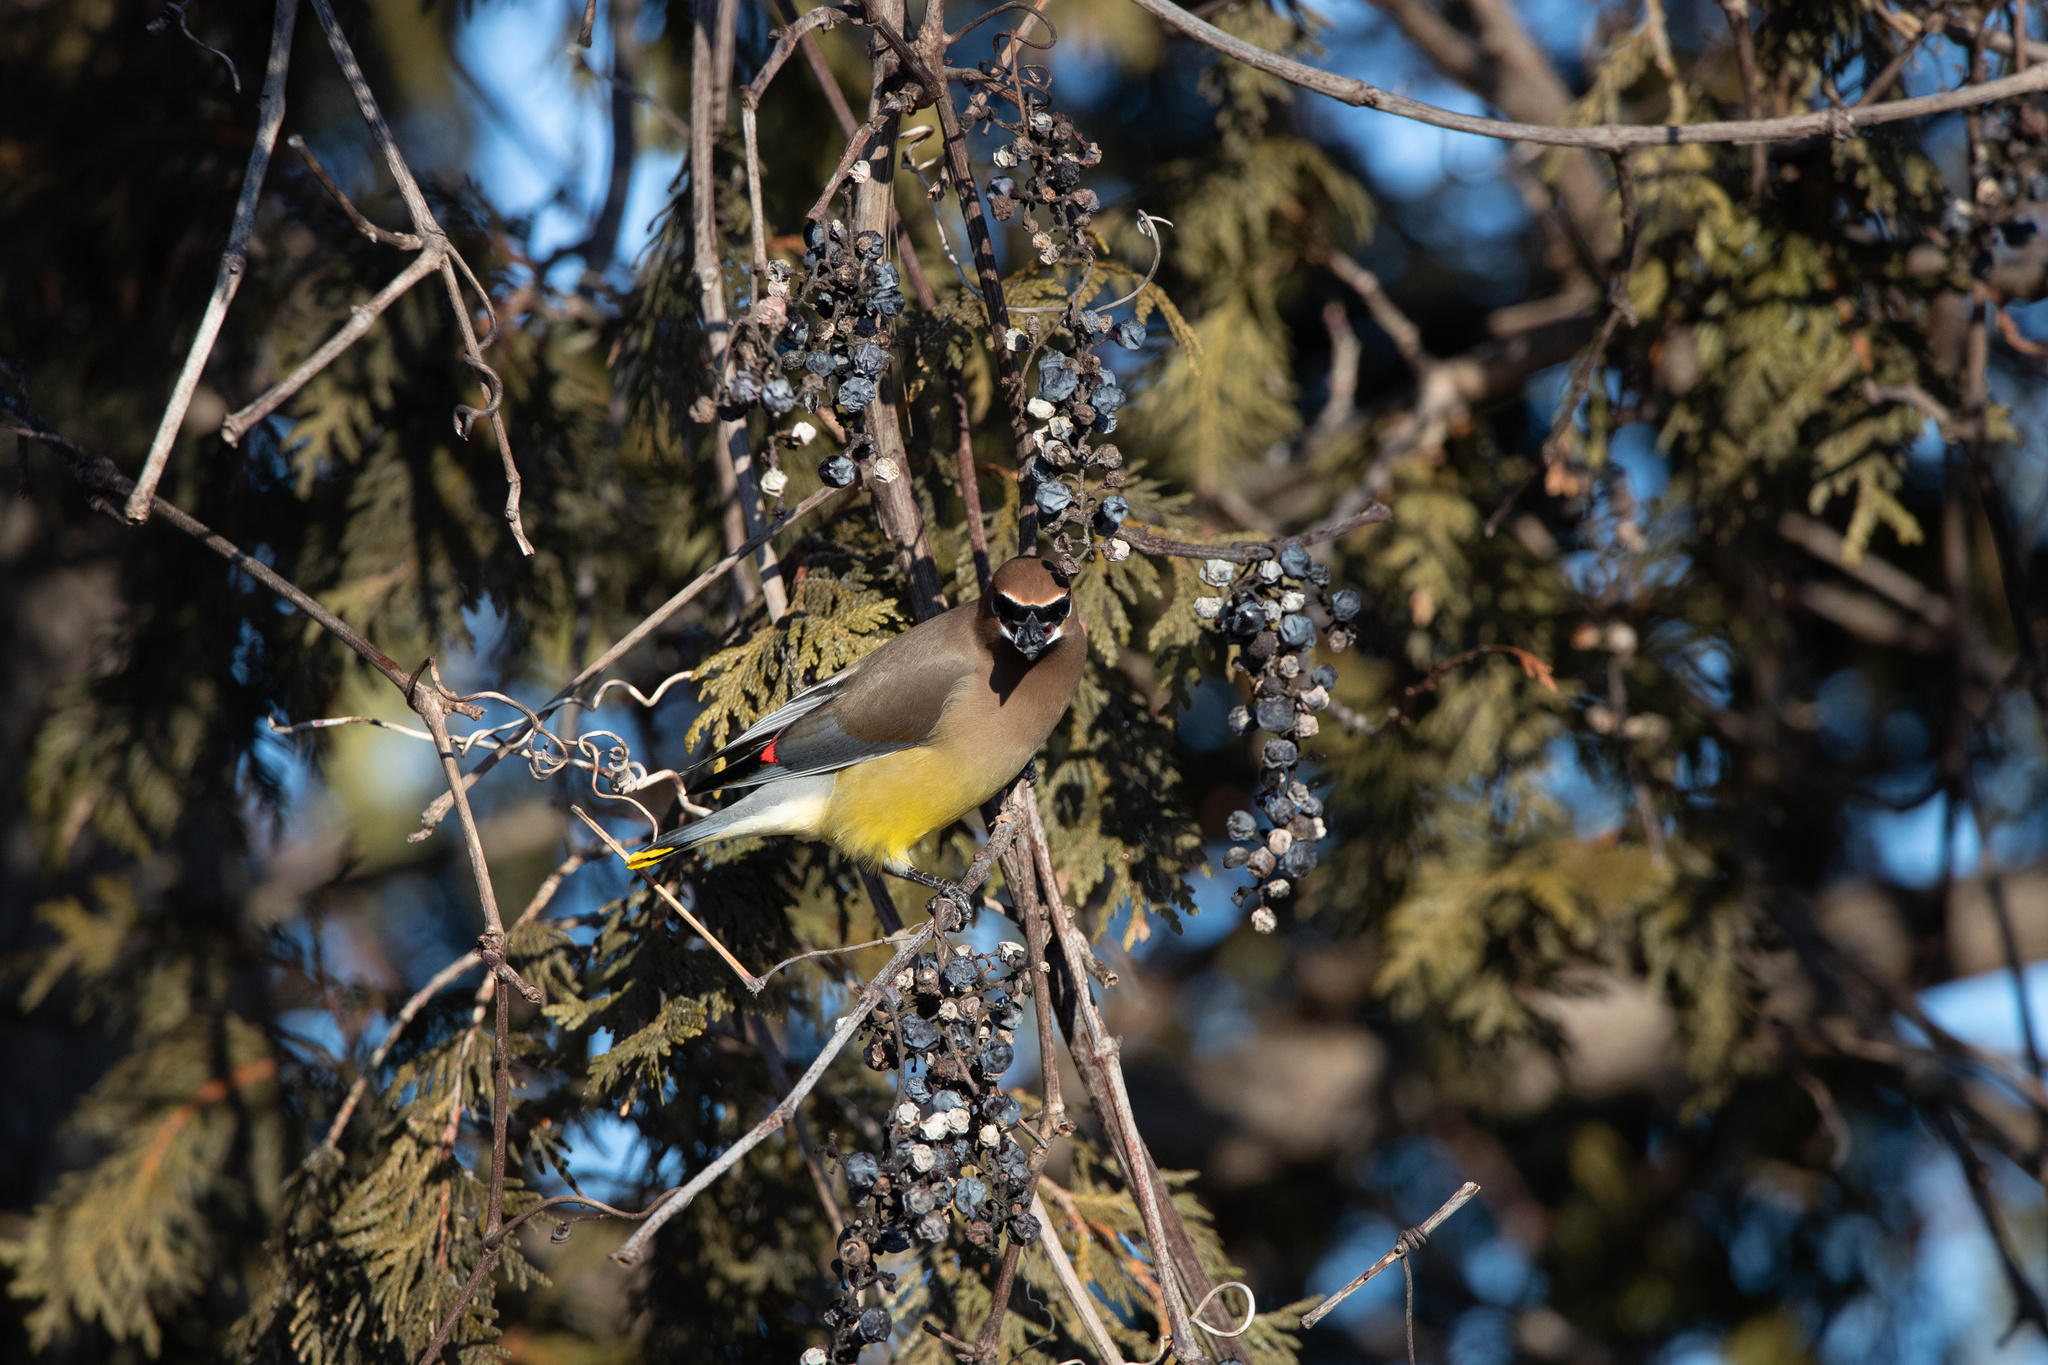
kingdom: Animalia
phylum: Chordata
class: Aves
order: Passeriformes
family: Bombycillidae
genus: Bombycilla
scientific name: Bombycilla cedrorum
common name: Cedar waxwing
